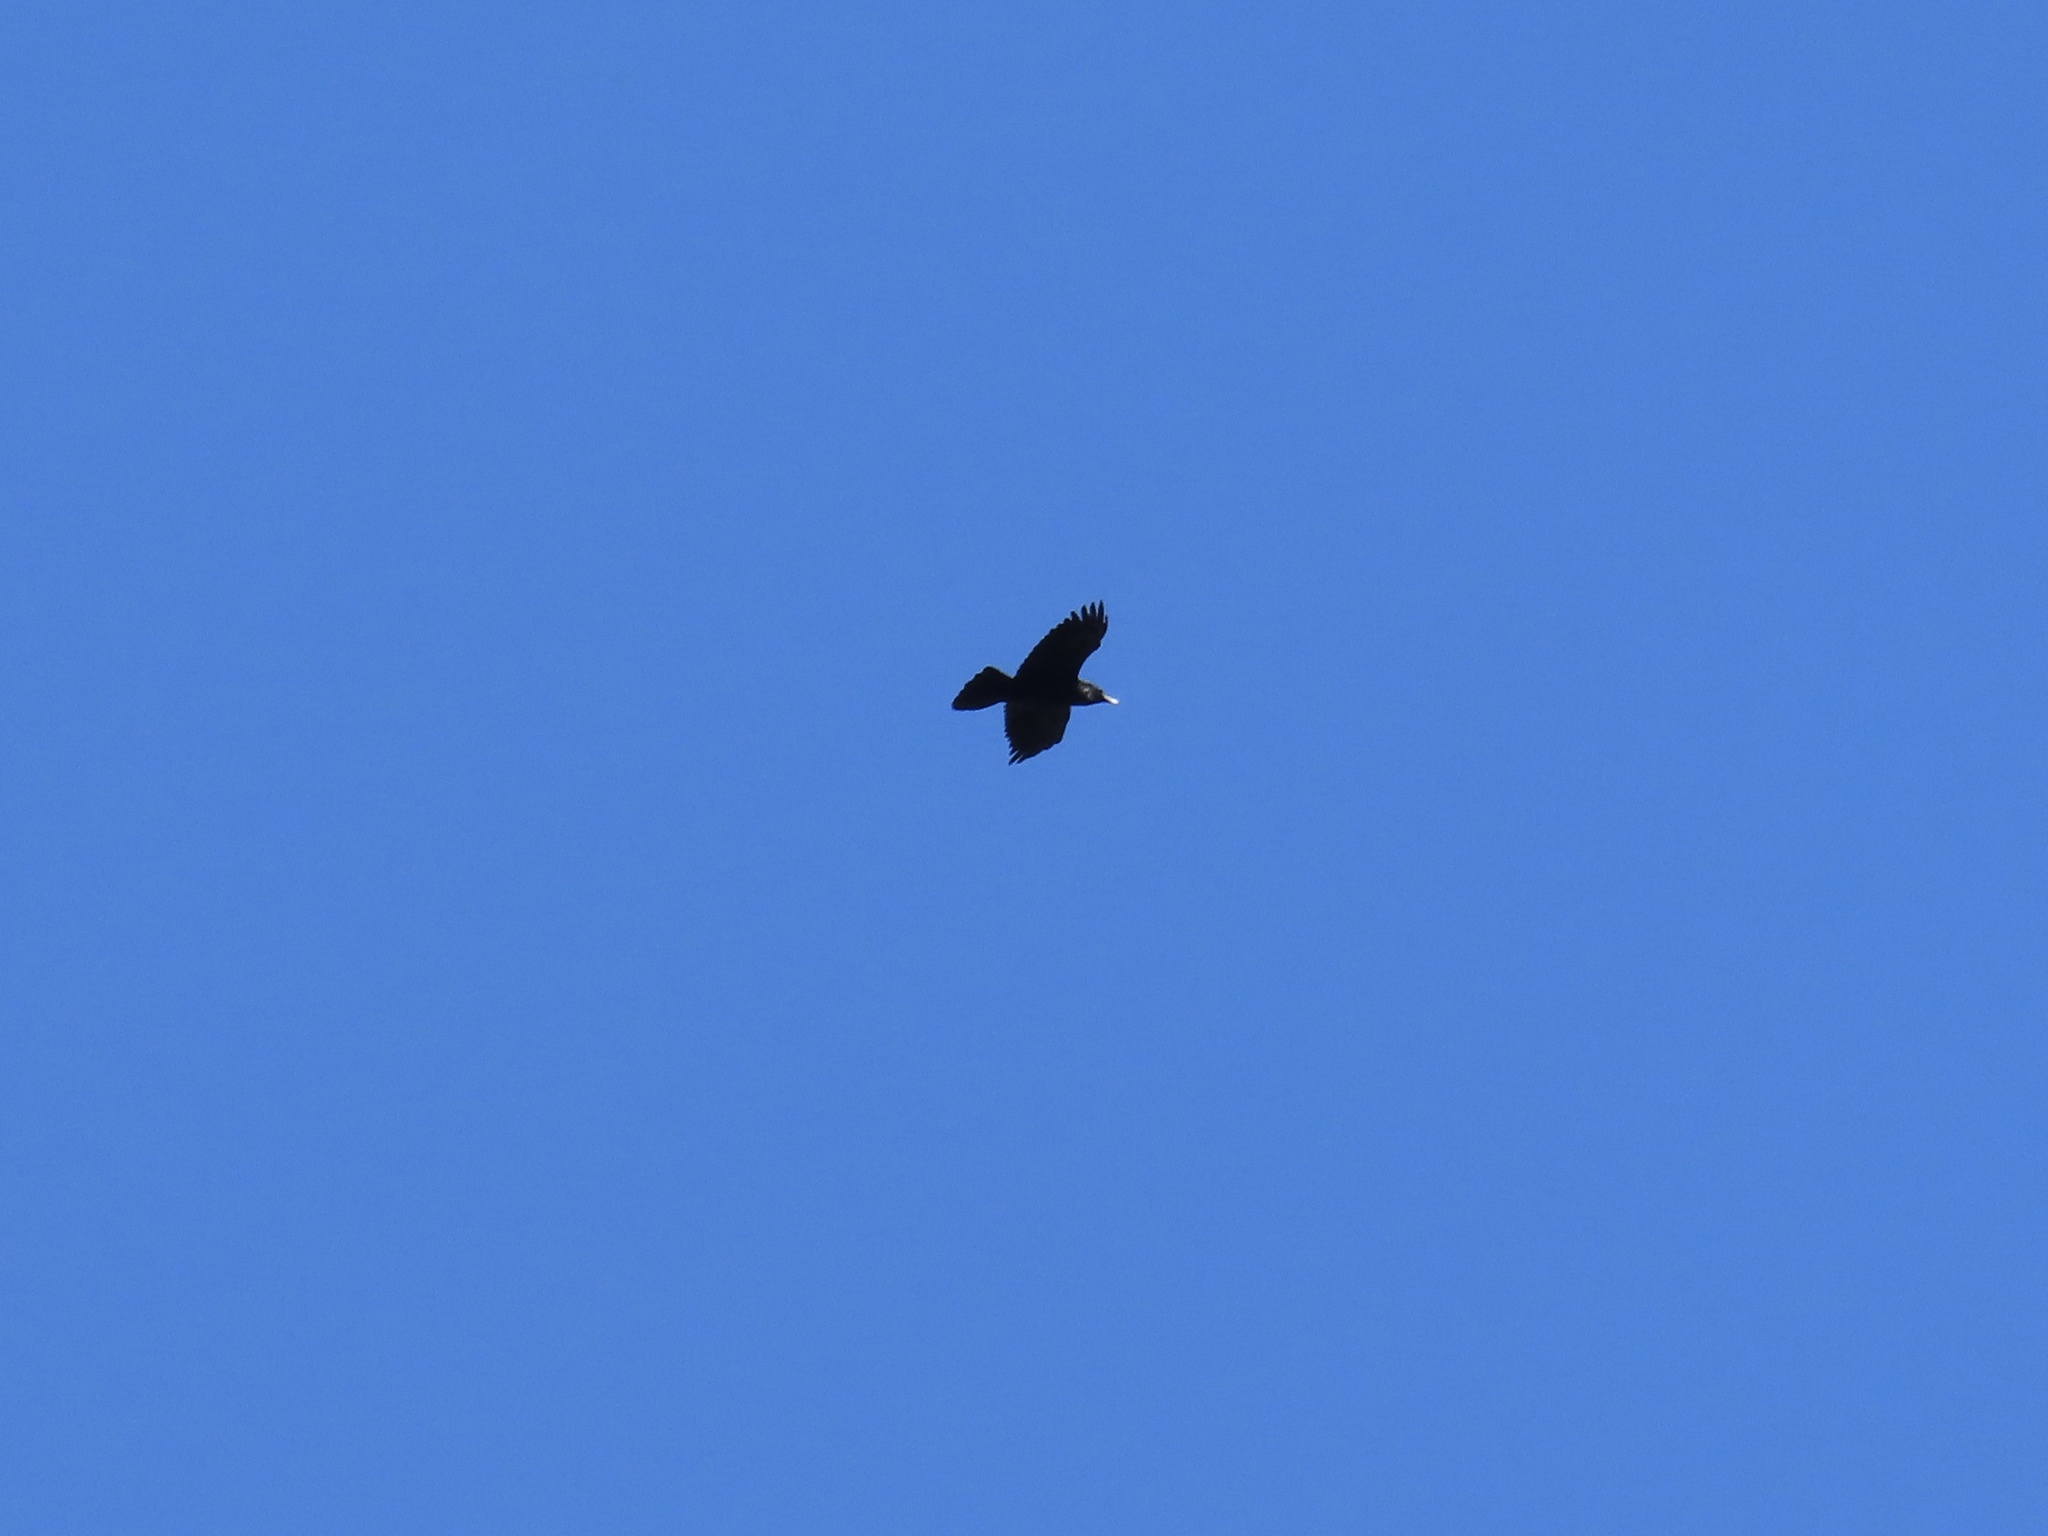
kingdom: Animalia
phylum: Chordata
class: Aves
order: Passeriformes
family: Corvidae
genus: Corvus
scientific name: Corvus corax
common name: Common raven
